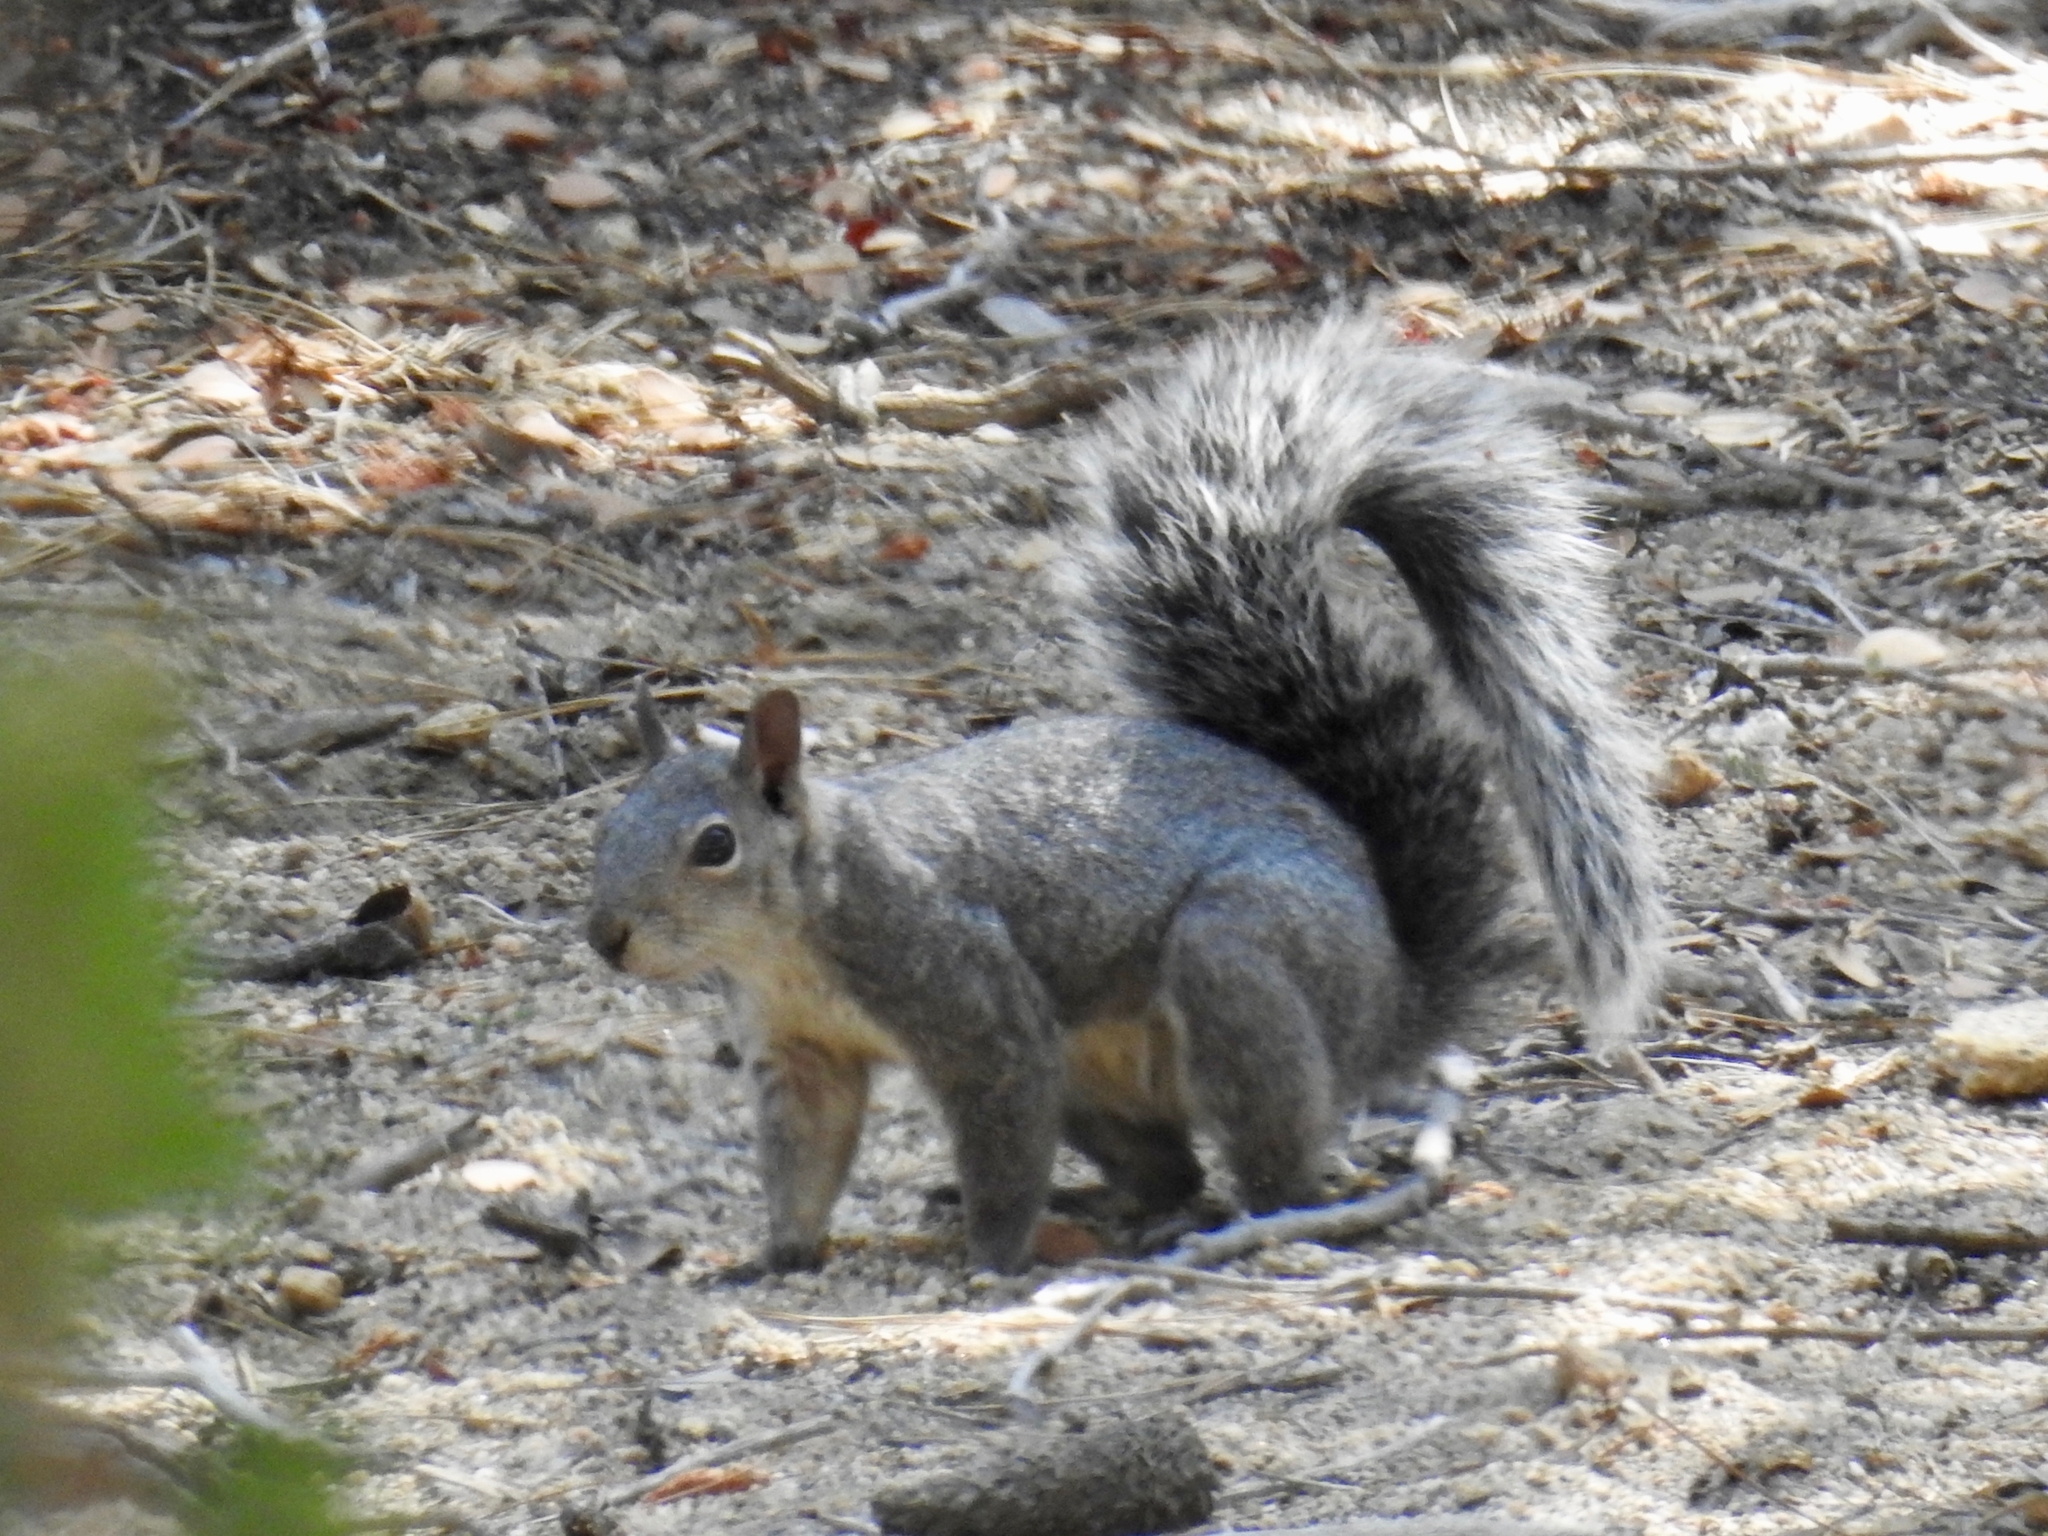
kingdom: Animalia
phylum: Chordata
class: Mammalia
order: Rodentia
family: Sciuridae
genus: Sciurus
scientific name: Sciurus griseus
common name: Western gray squirrel
